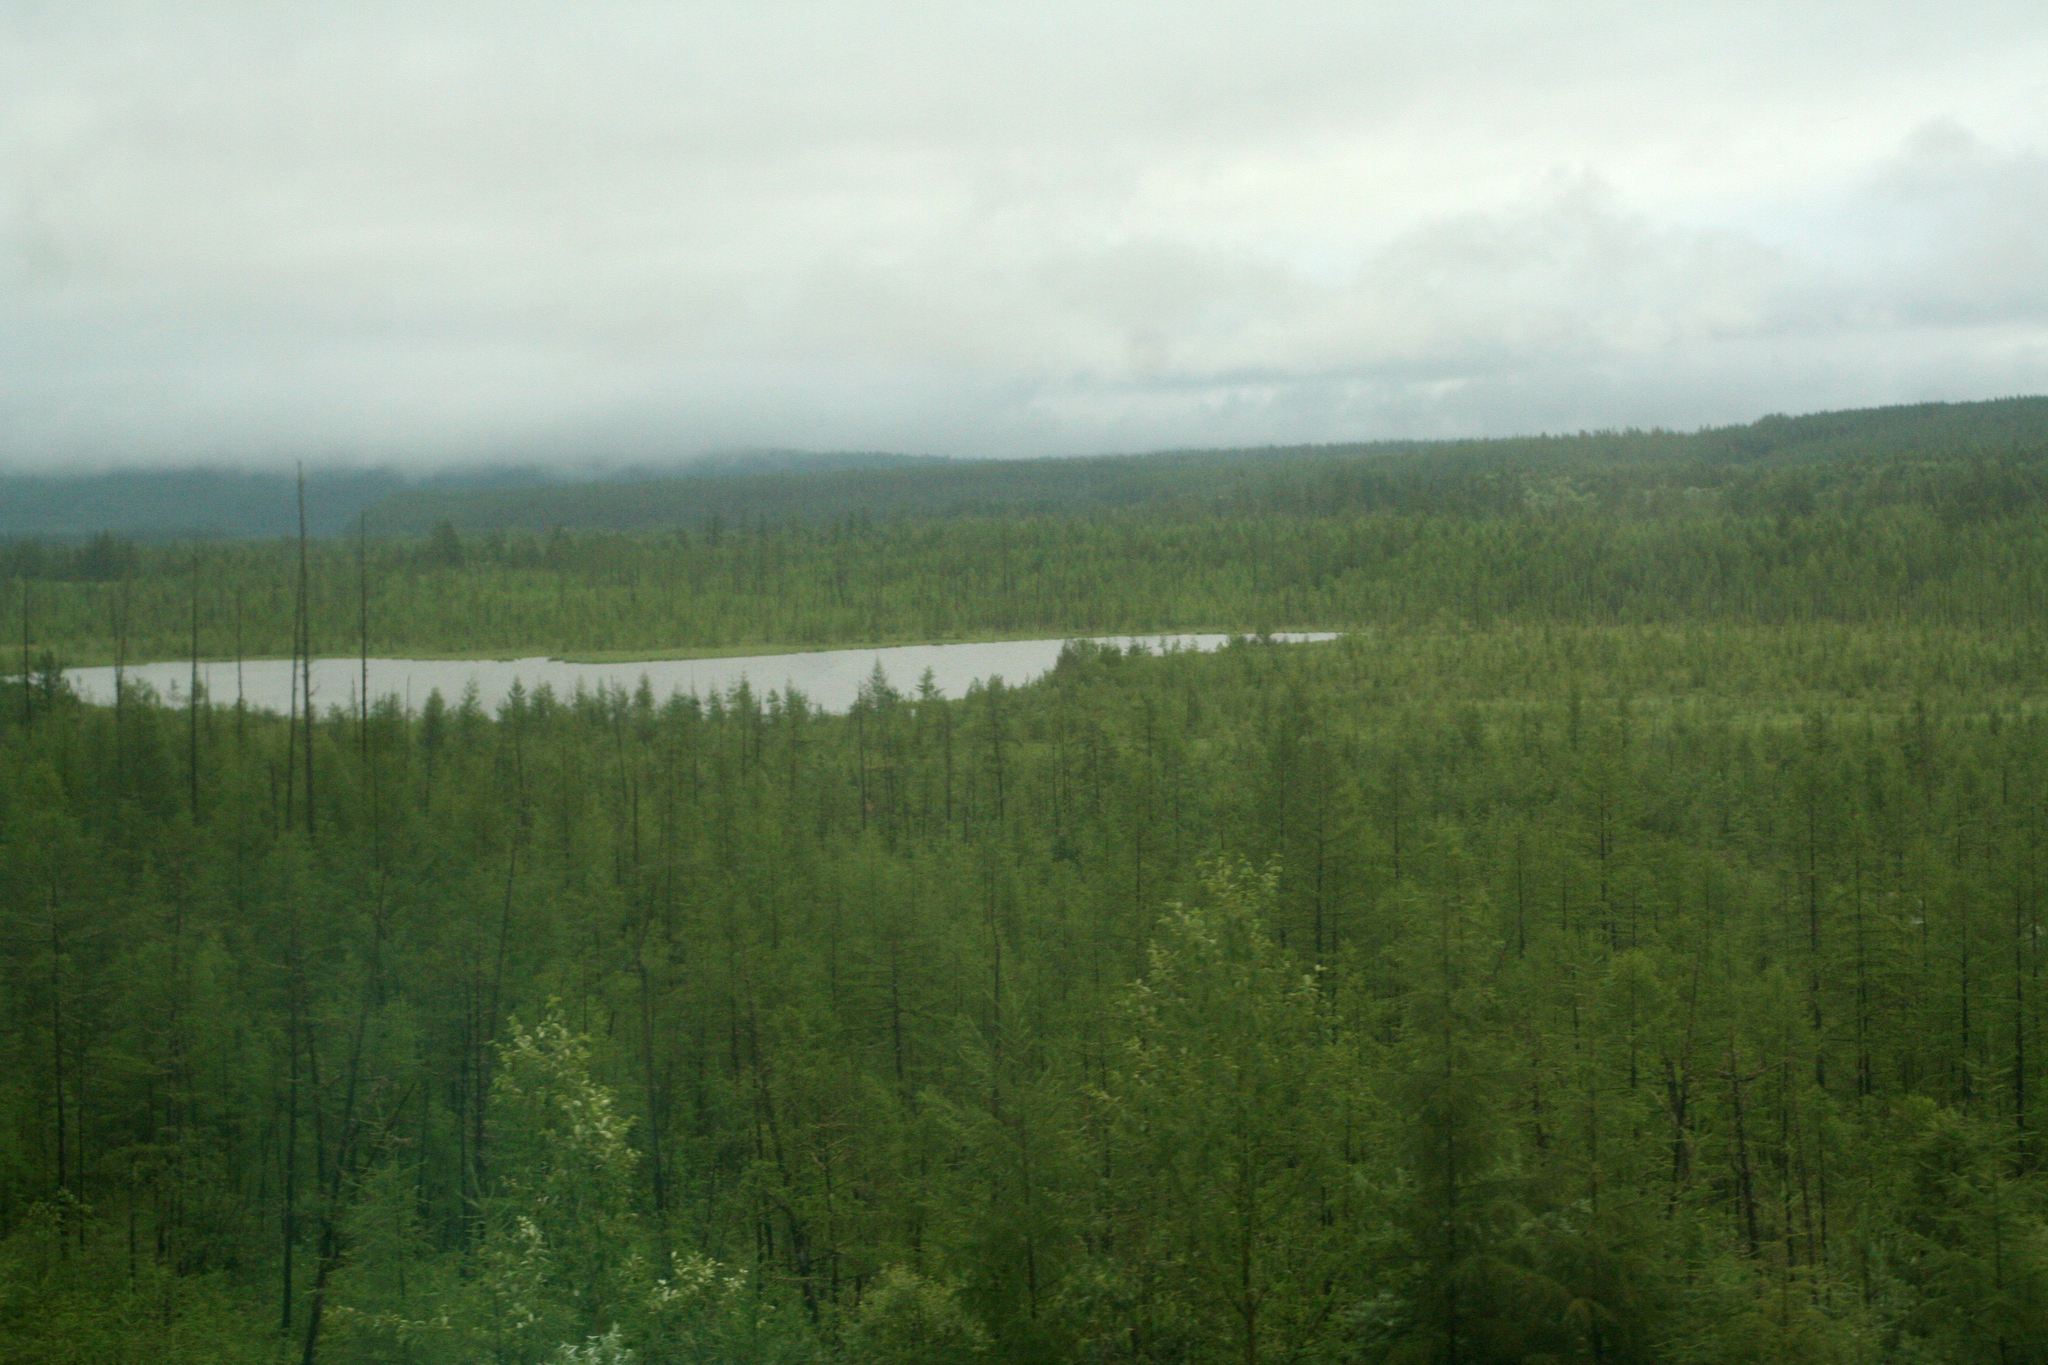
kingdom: Plantae
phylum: Tracheophyta
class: Pinopsida
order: Pinales
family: Pinaceae
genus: Larix
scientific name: Larix gmelinii
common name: Dahurian larch
